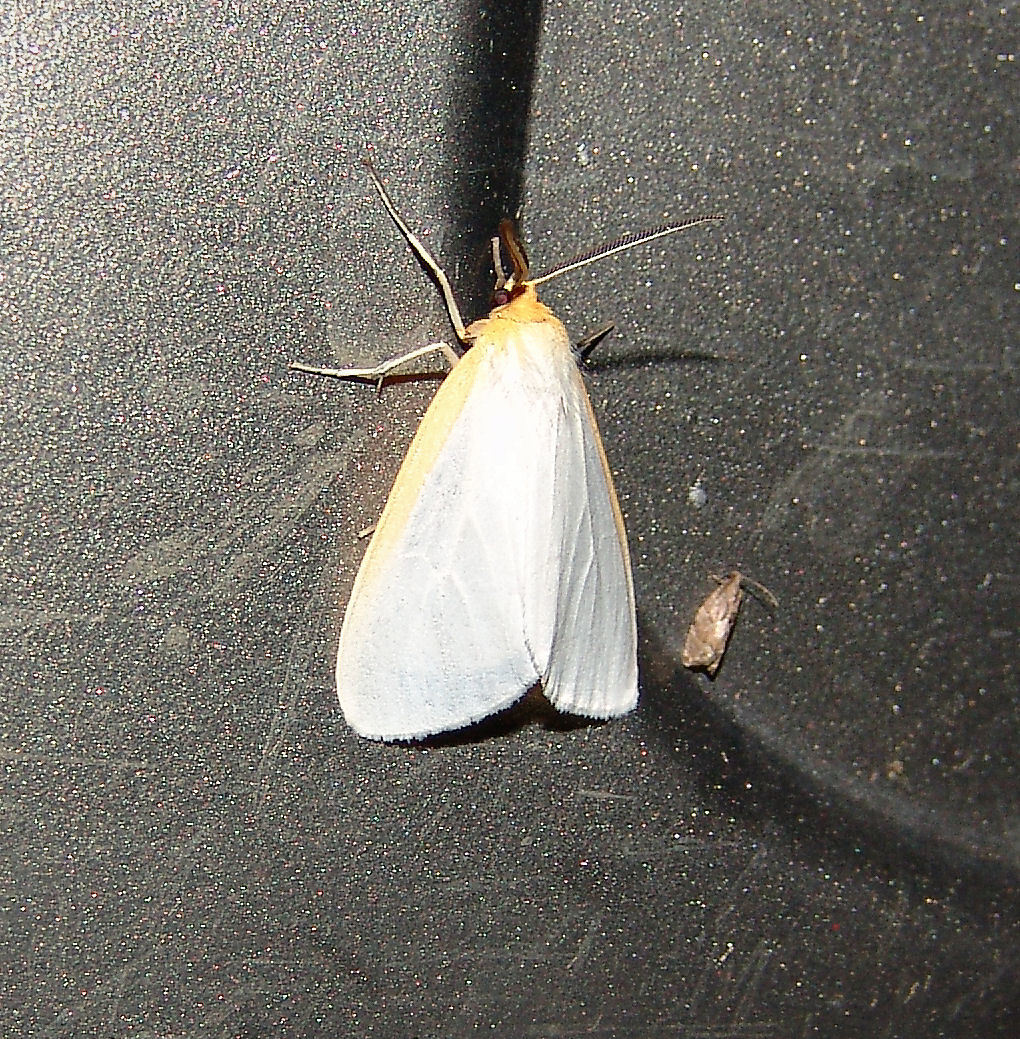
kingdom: Animalia
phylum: Arthropoda
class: Insecta
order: Lepidoptera
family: Erebidae
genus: Cycnia
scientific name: Cycnia tenera
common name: Delicate cycnia moth
